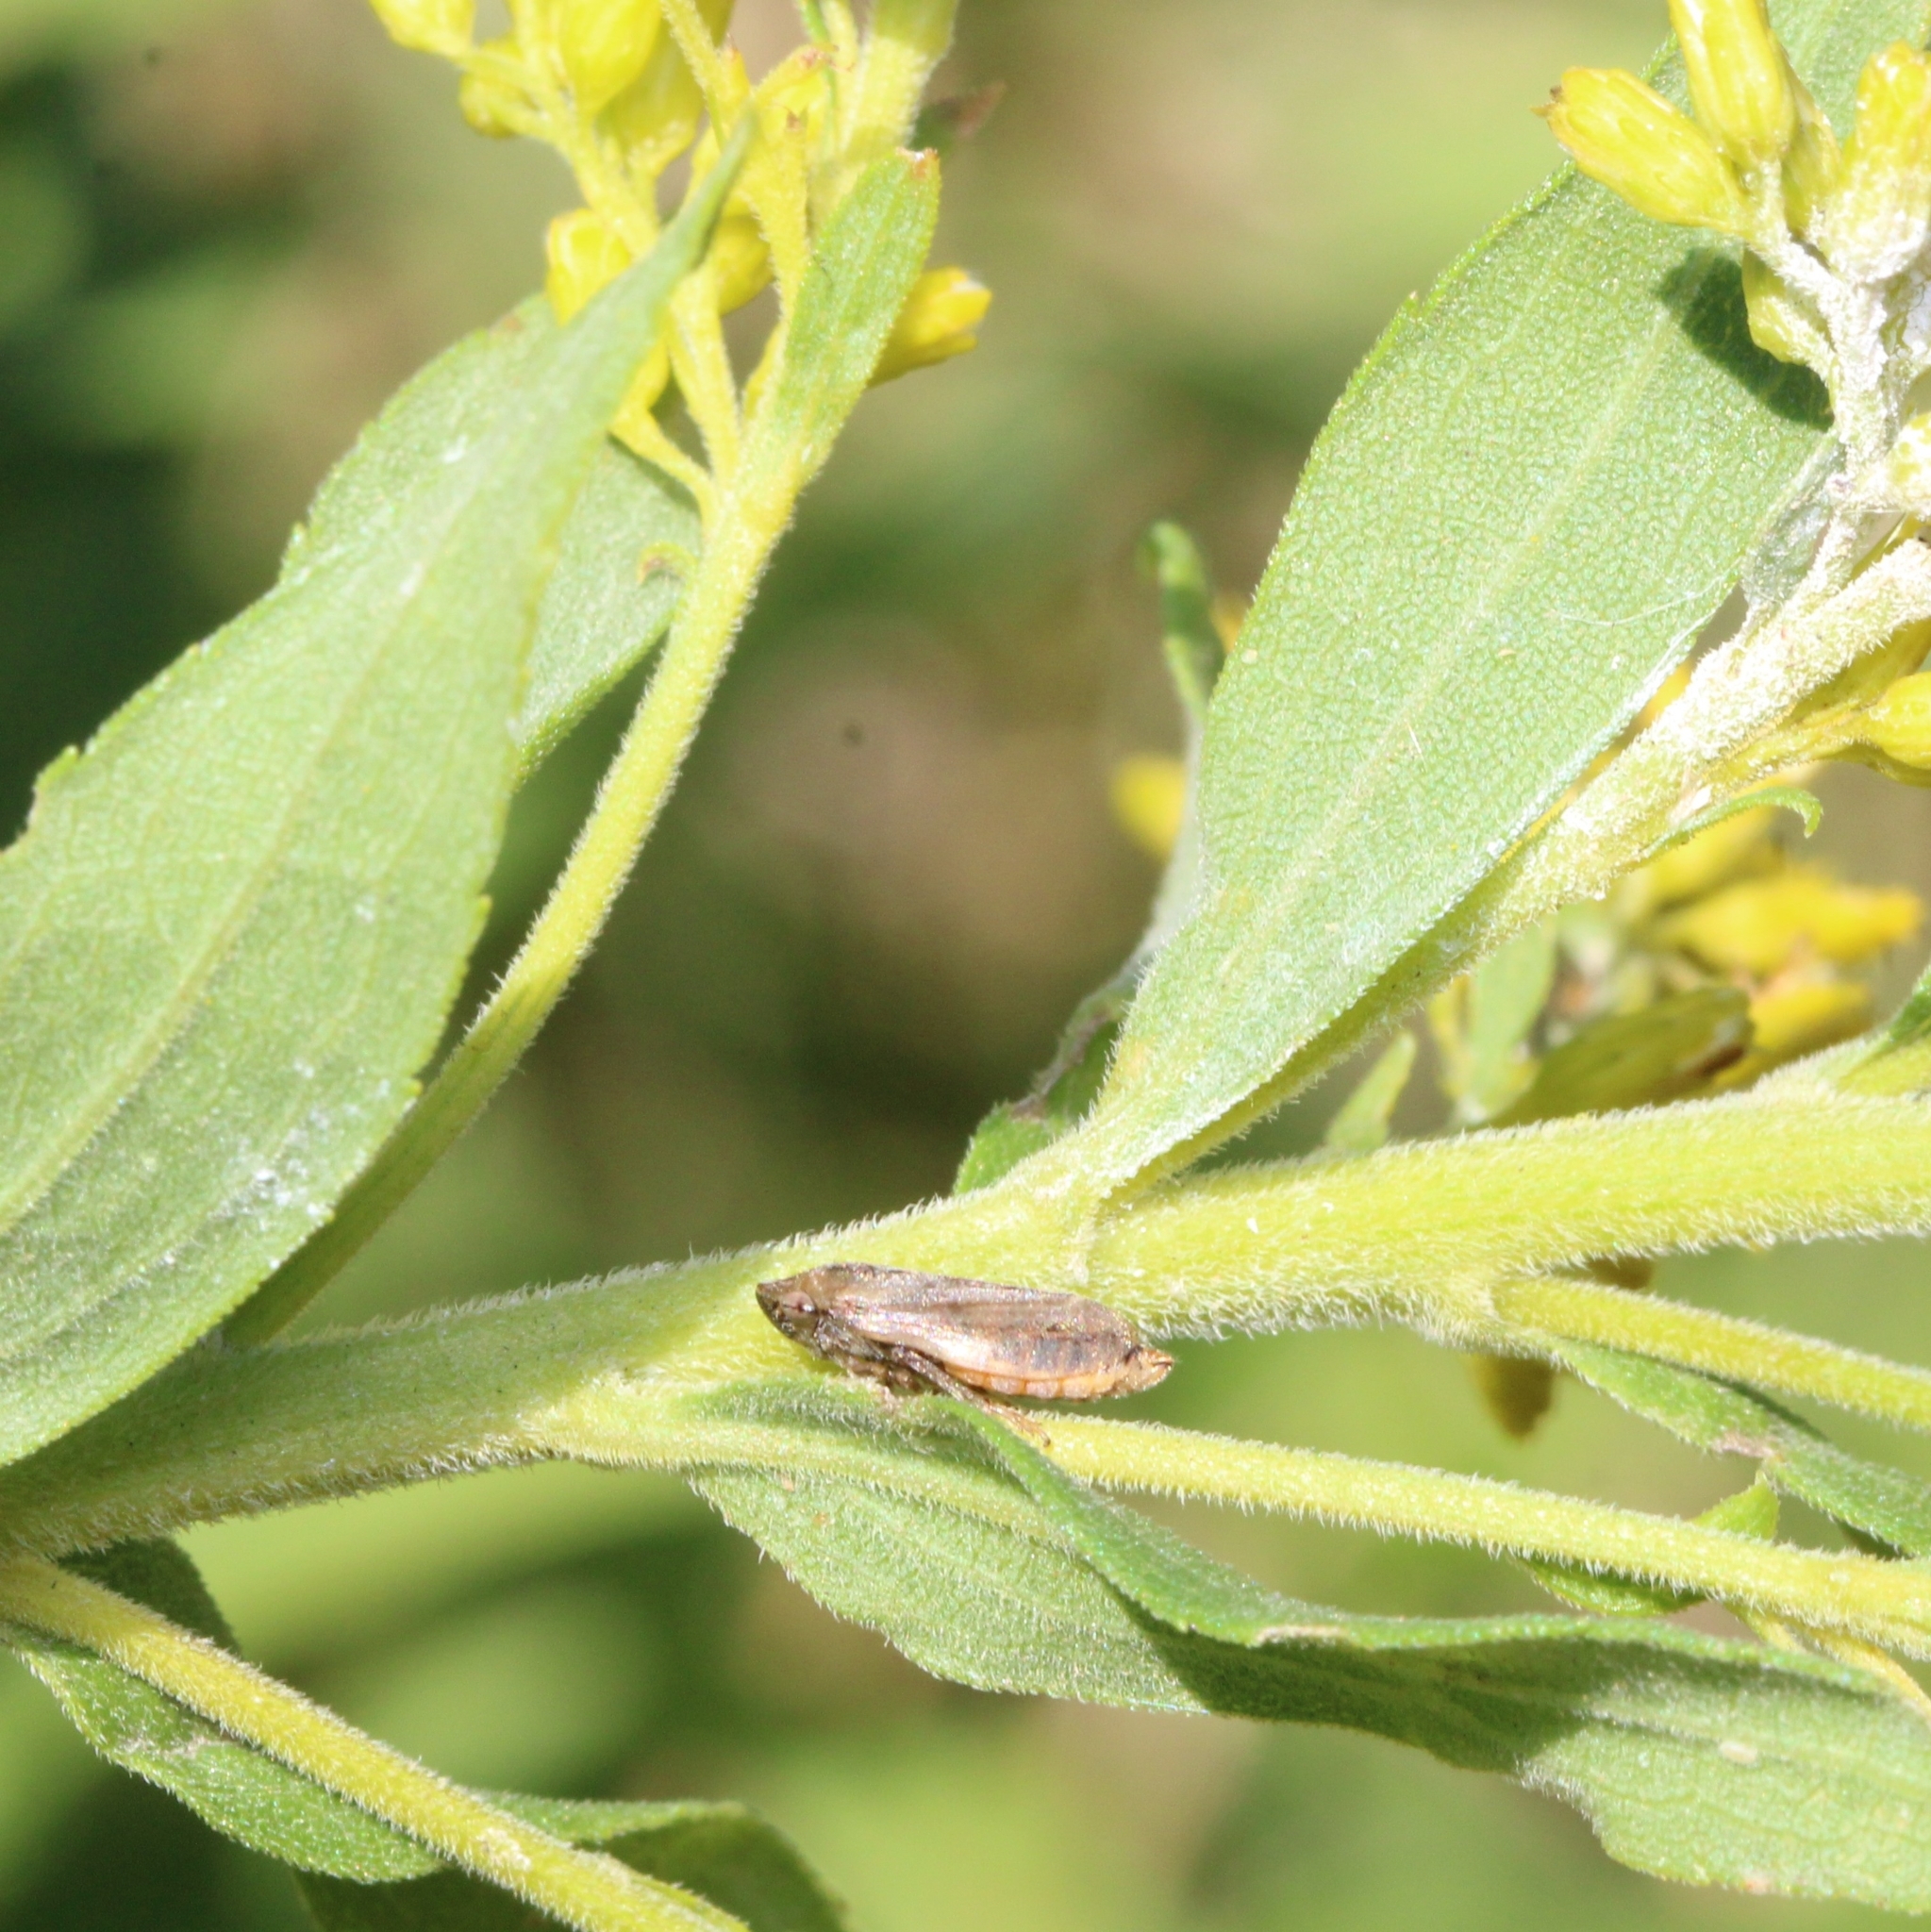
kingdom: Animalia
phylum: Arthropoda
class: Insecta
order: Hemiptera
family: Aphrophoridae
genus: Philaenus
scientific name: Philaenus spumarius
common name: Meadow spittlebug
